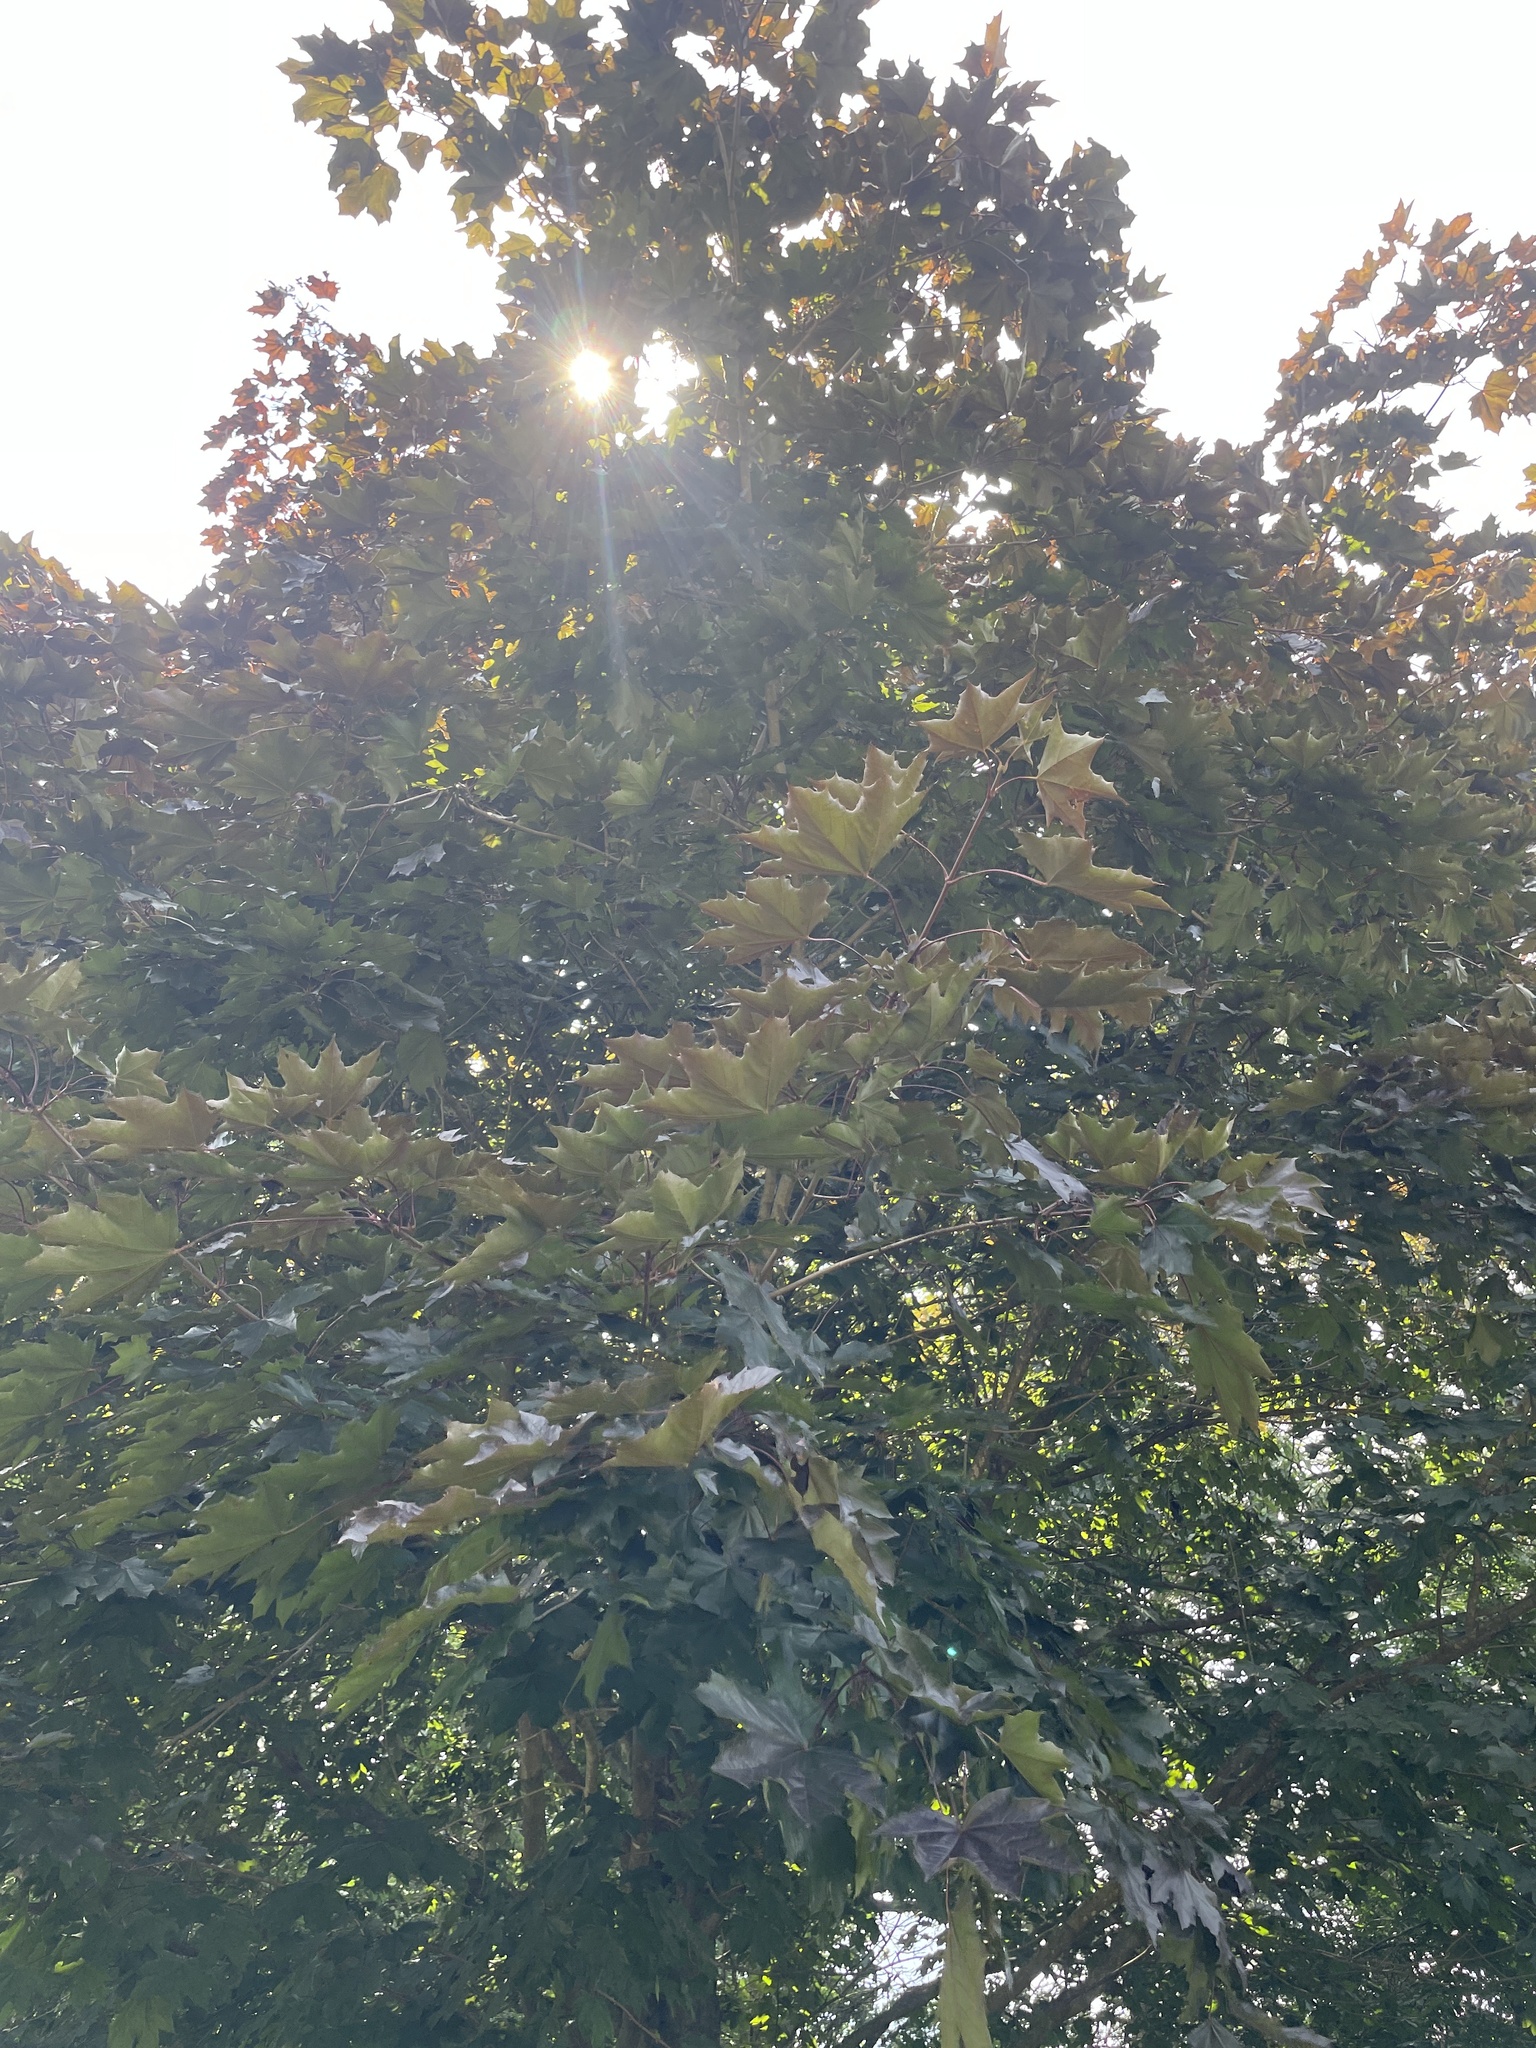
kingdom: Plantae
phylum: Tracheophyta
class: Magnoliopsida
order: Sapindales
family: Sapindaceae
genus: Acer
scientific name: Acer platanoides
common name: Norway maple
